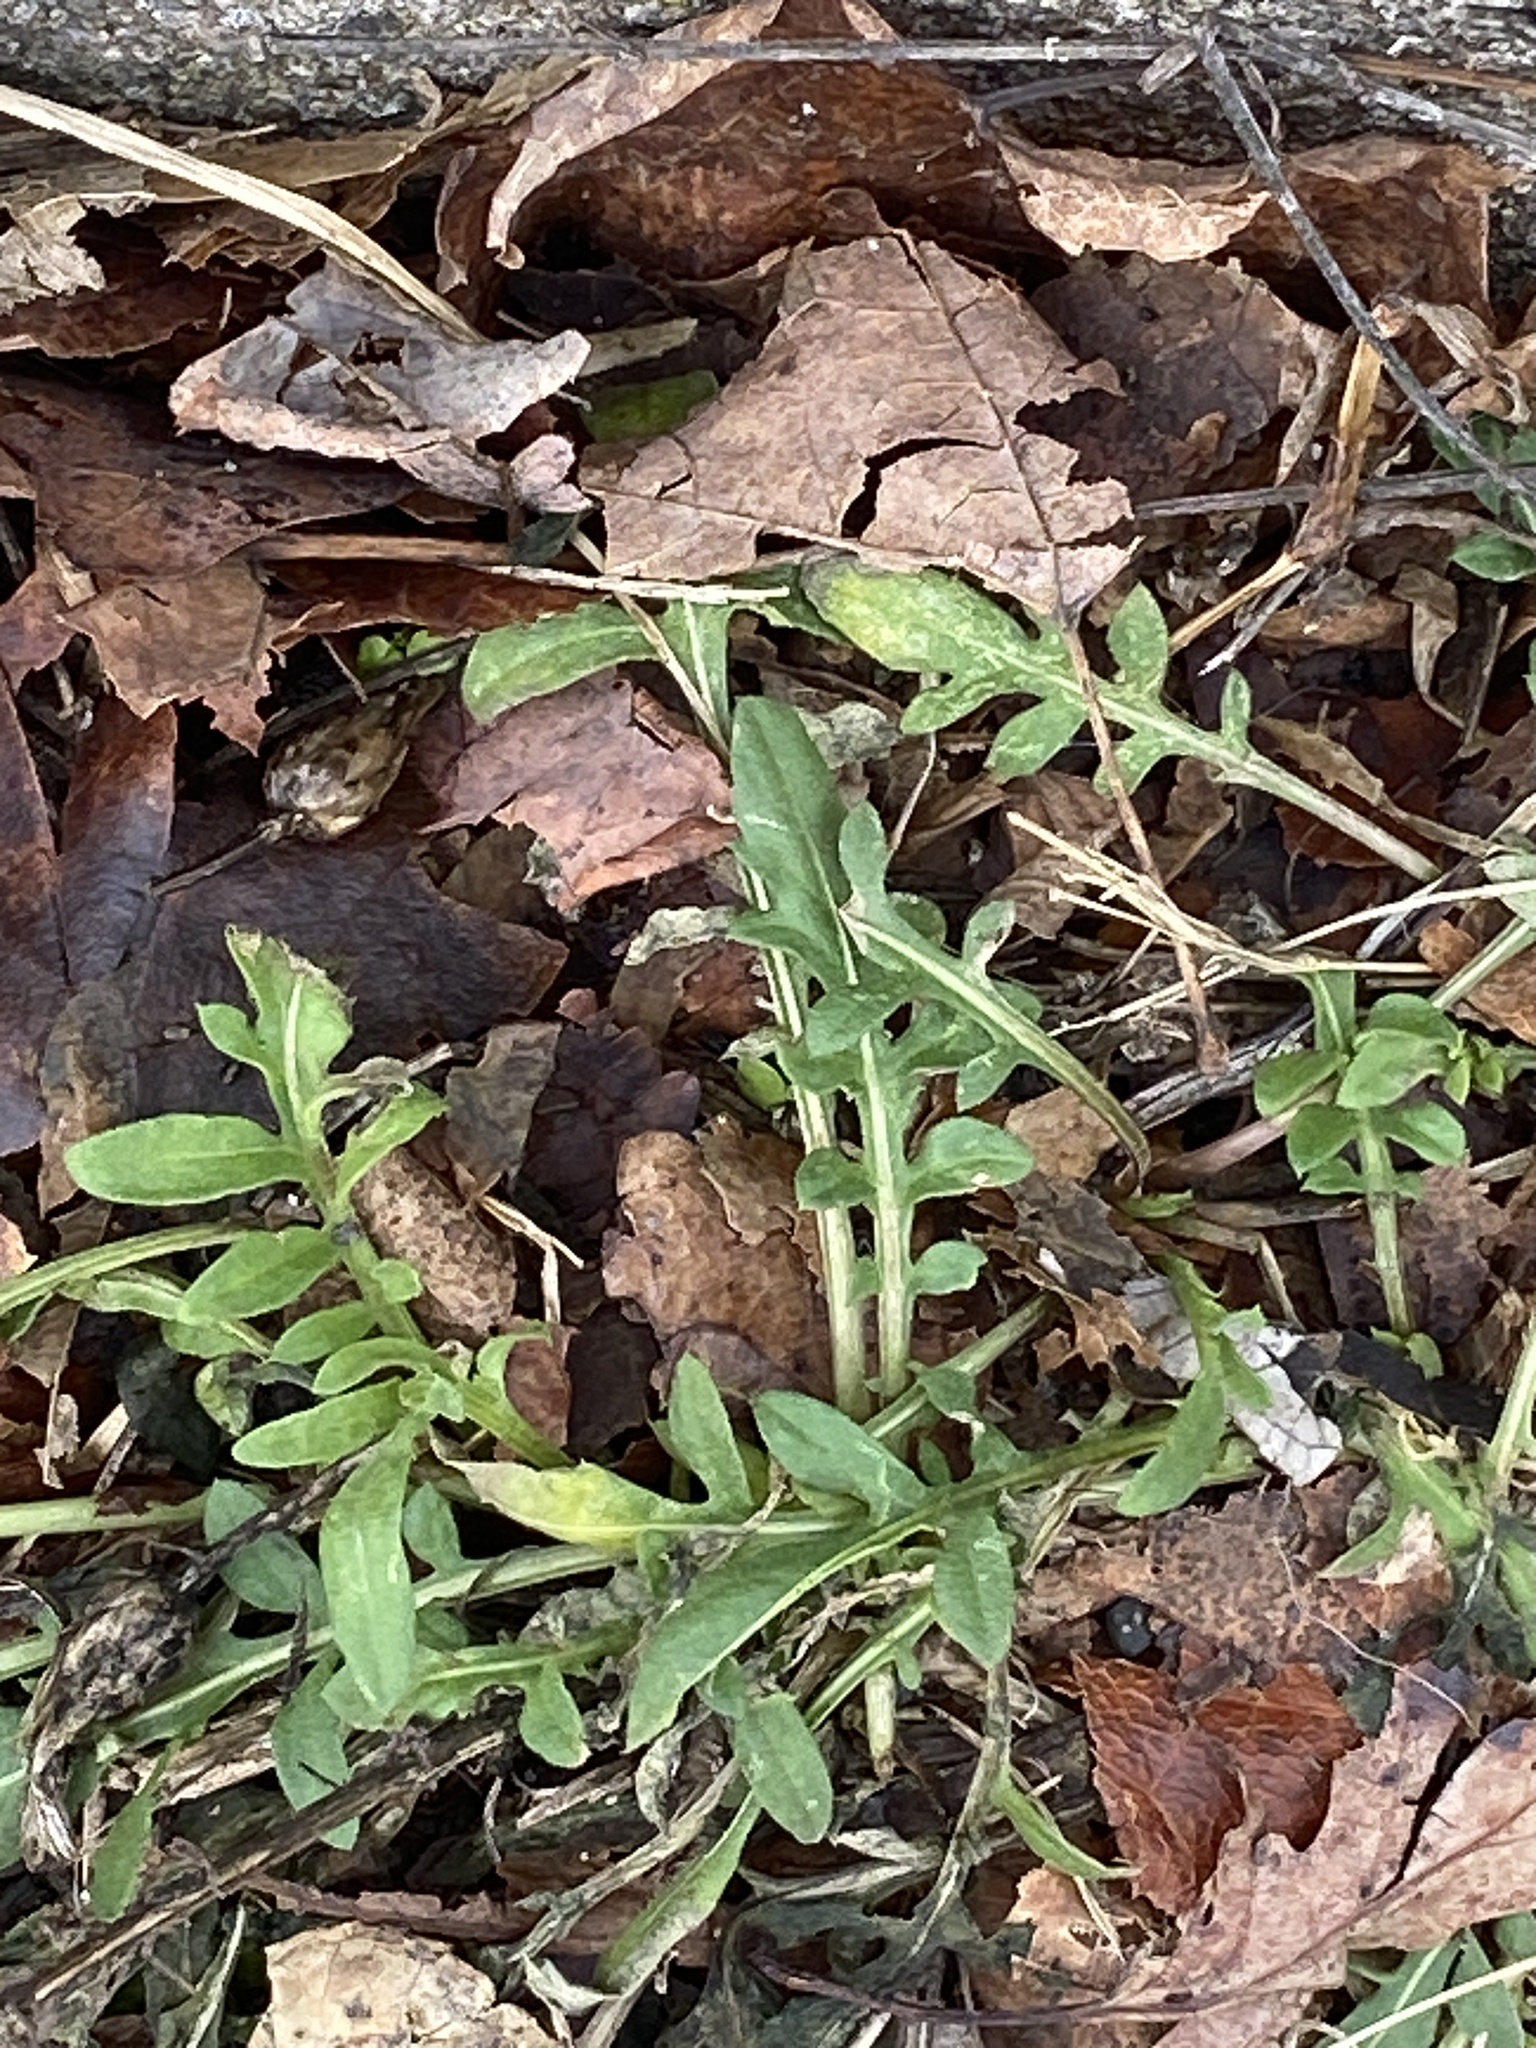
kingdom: Plantae
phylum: Tracheophyta
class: Magnoliopsida
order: Asterales
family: Asteraceae
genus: Centaurea
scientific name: Centaurea stoebe
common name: Spotted knapweed
